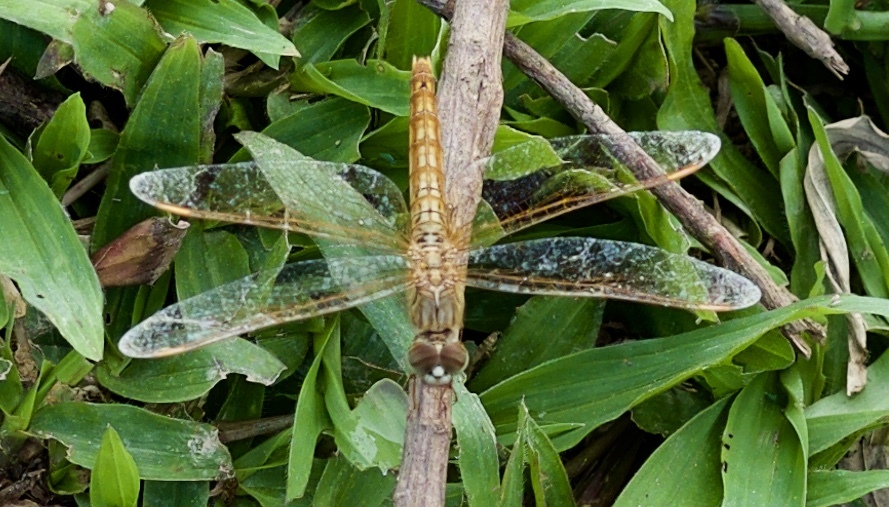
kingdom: Animalia
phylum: Arthropoda
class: Insecta
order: Odonata
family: Libellulidae
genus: Brachythemis
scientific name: Brachythemis contaminata
